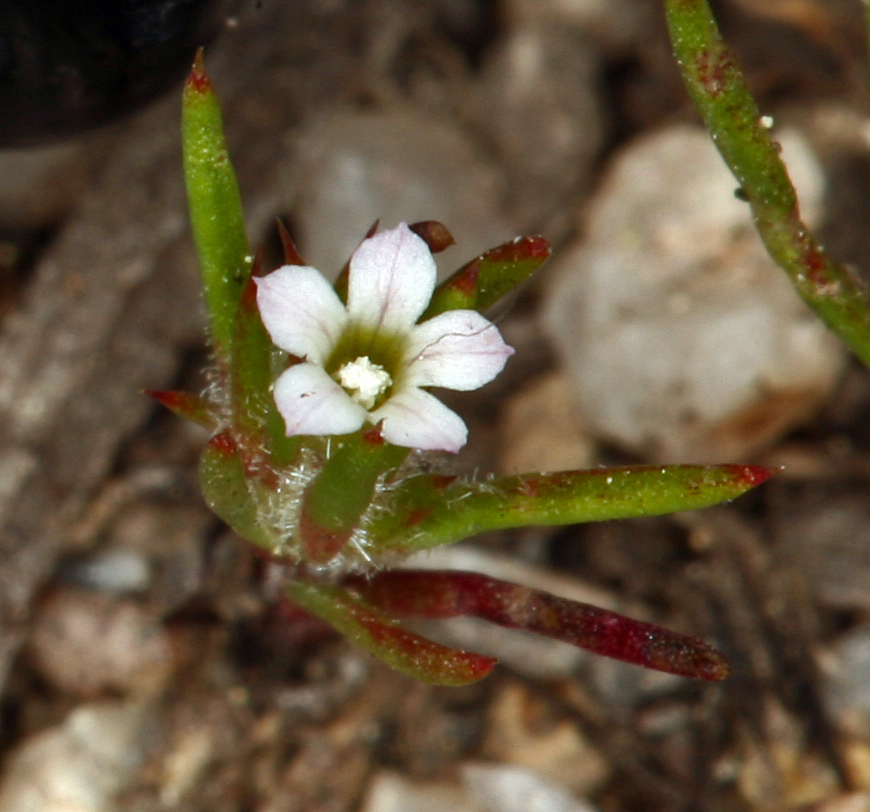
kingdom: Plantae
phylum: Tracheophyta
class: Magnoliopsida
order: Ericales
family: Polemoniaceae
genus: Navarretia
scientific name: Navarretia divaricata
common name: Mountain navarretia
